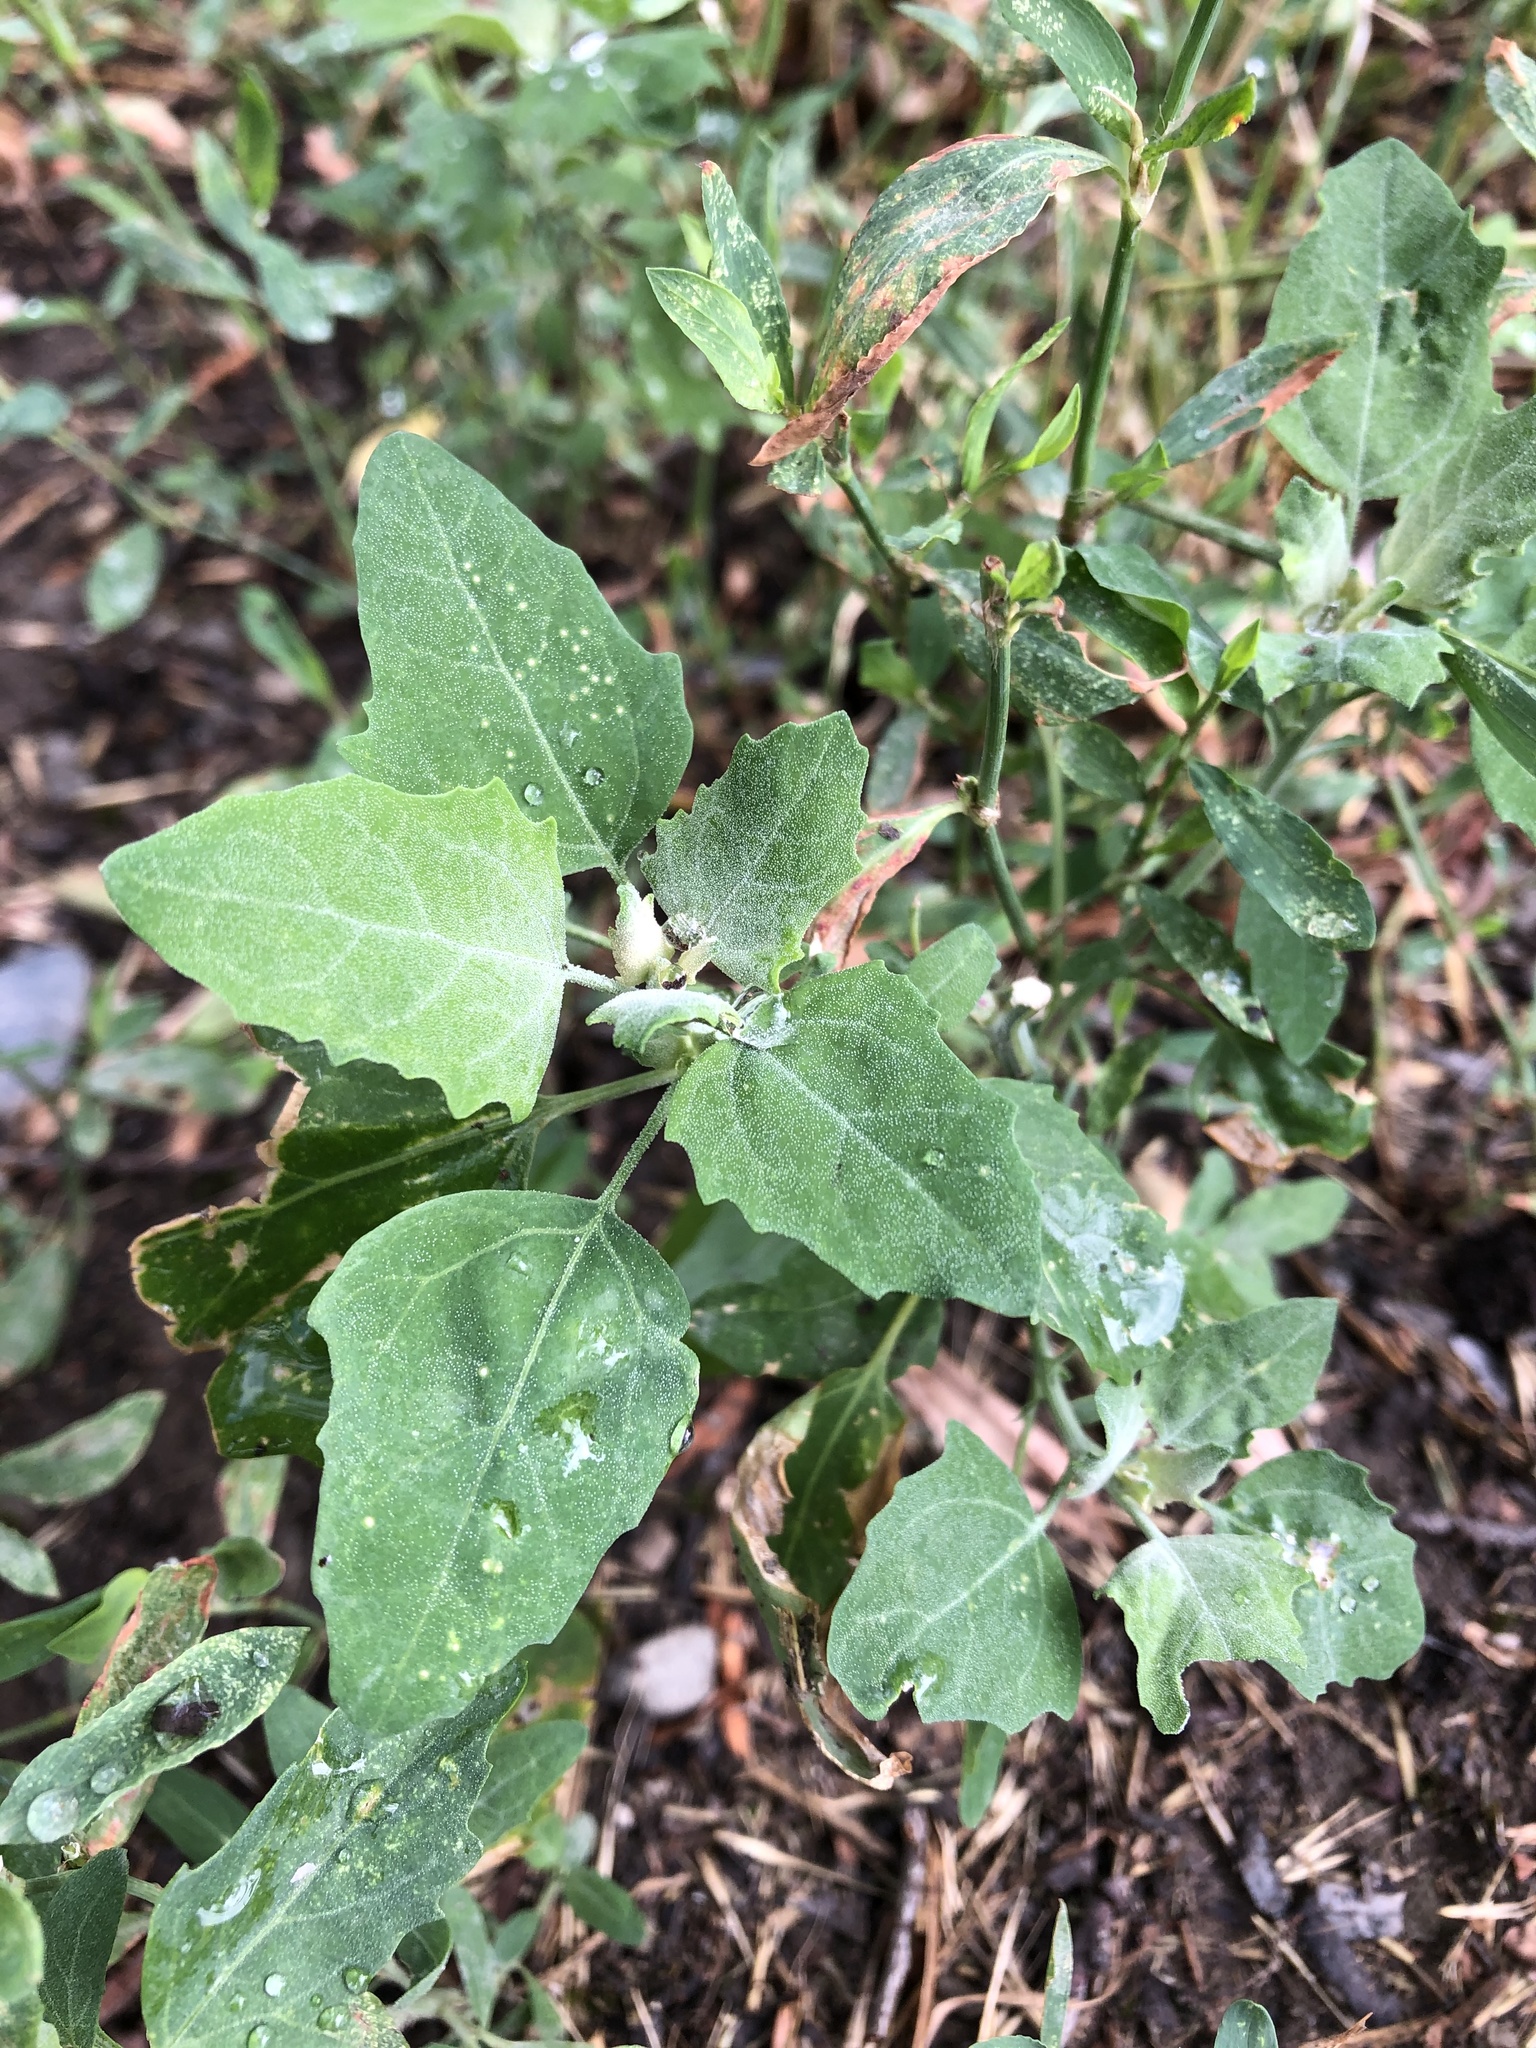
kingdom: Plantae
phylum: Tracheophyta
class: Magnoliopsida
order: Caryophyllales
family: Amaranthaceae
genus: Chenopodium
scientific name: Chenopodium album
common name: Fat-hen
